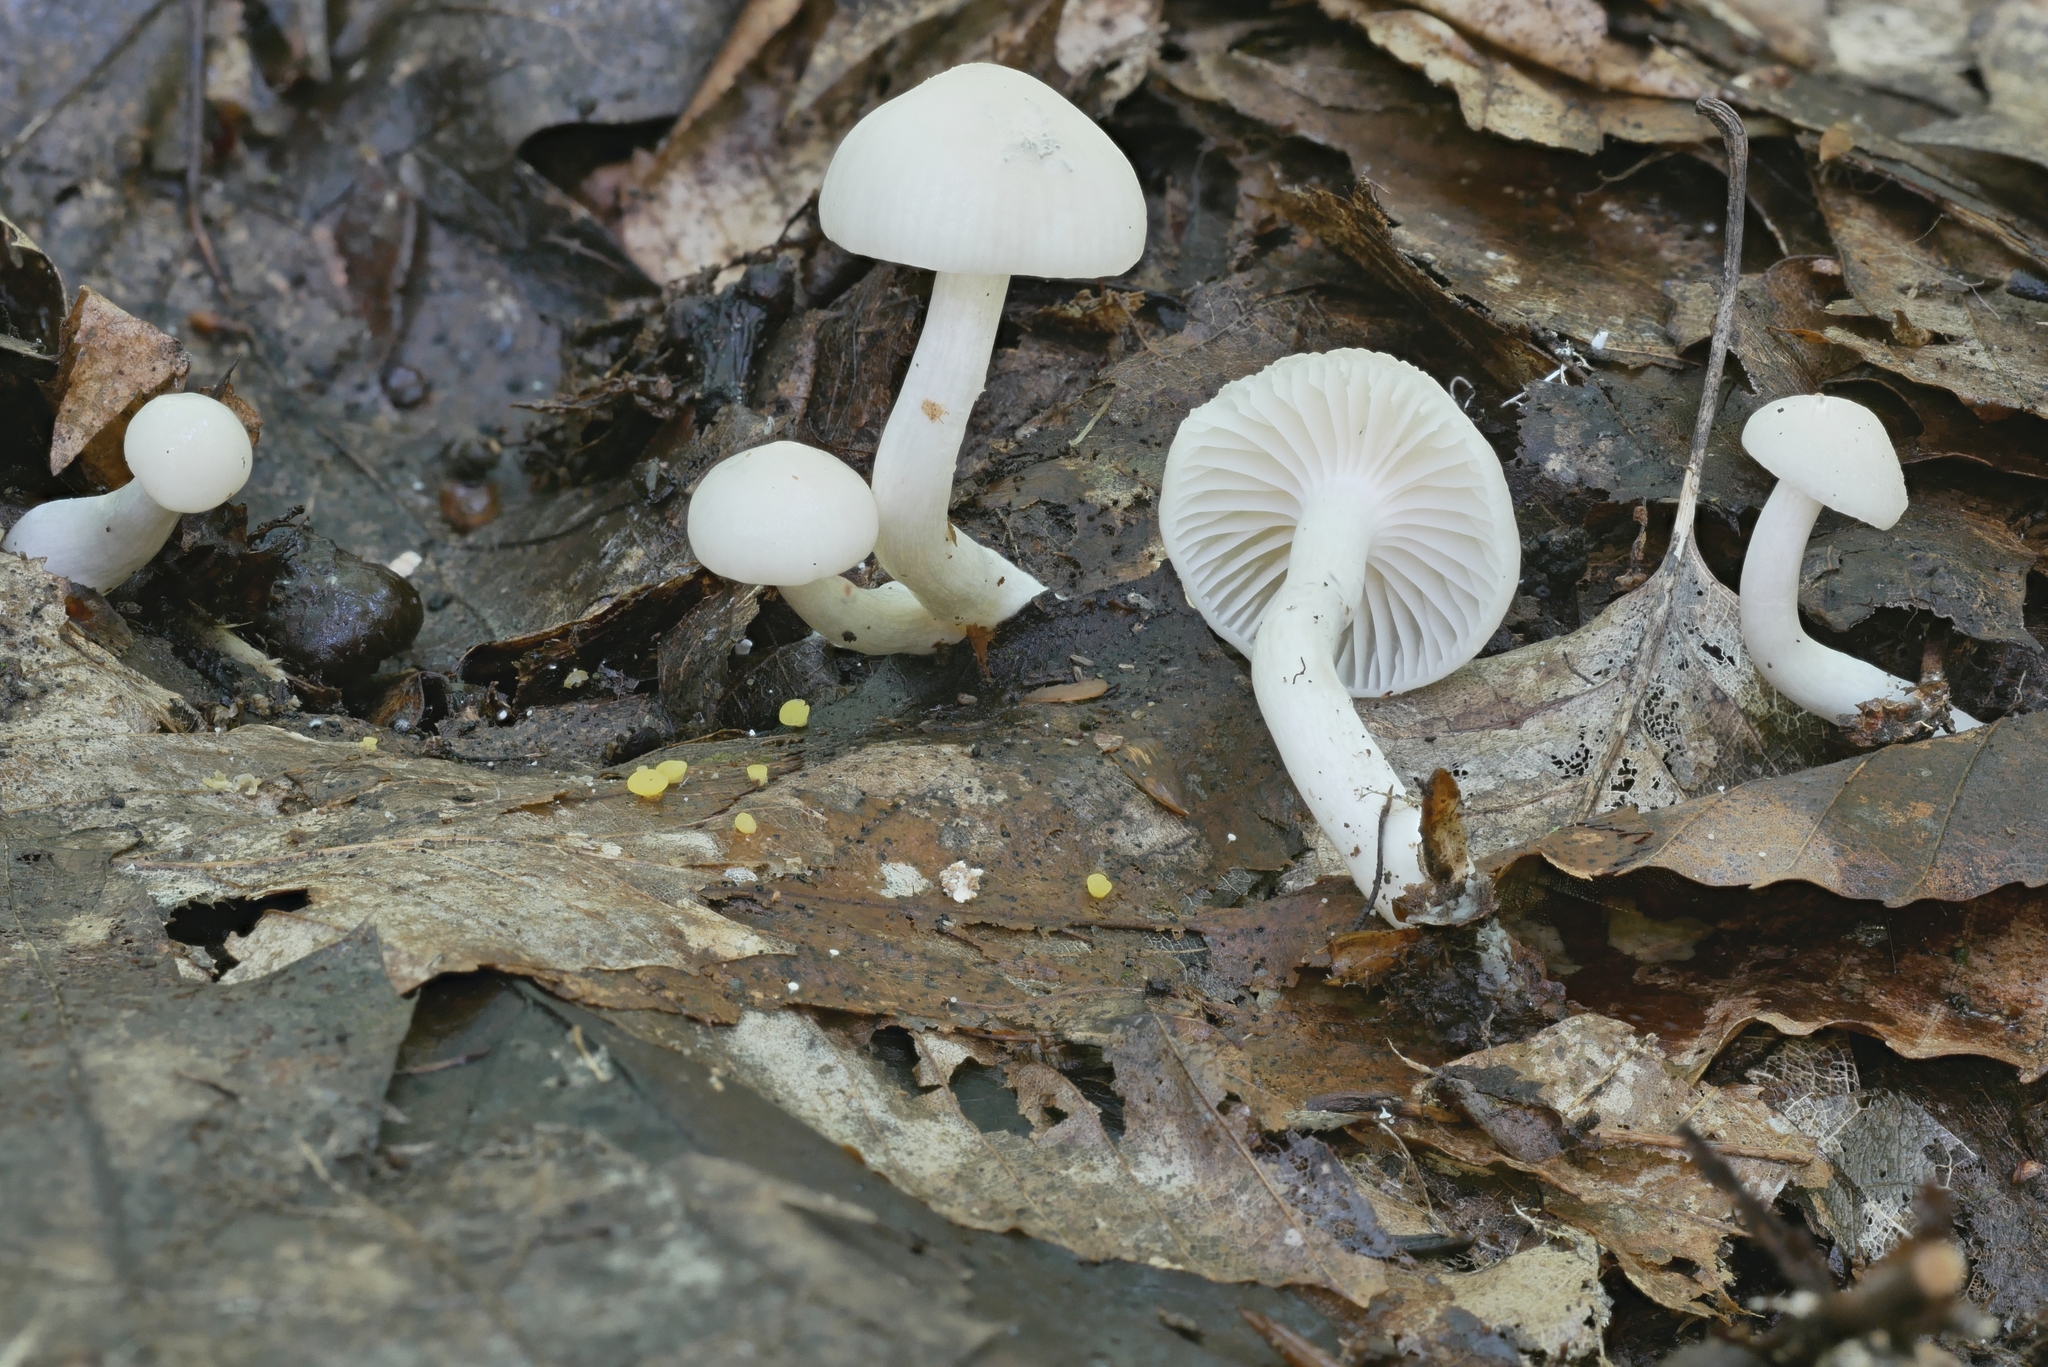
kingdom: Fungi
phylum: Basidiomycota
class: Agaricomycetes
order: Agaricales
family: Hygrophoraceae
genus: Cuphophyllus
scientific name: Cuphophyllus virgineus
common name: Snowy waxcap
